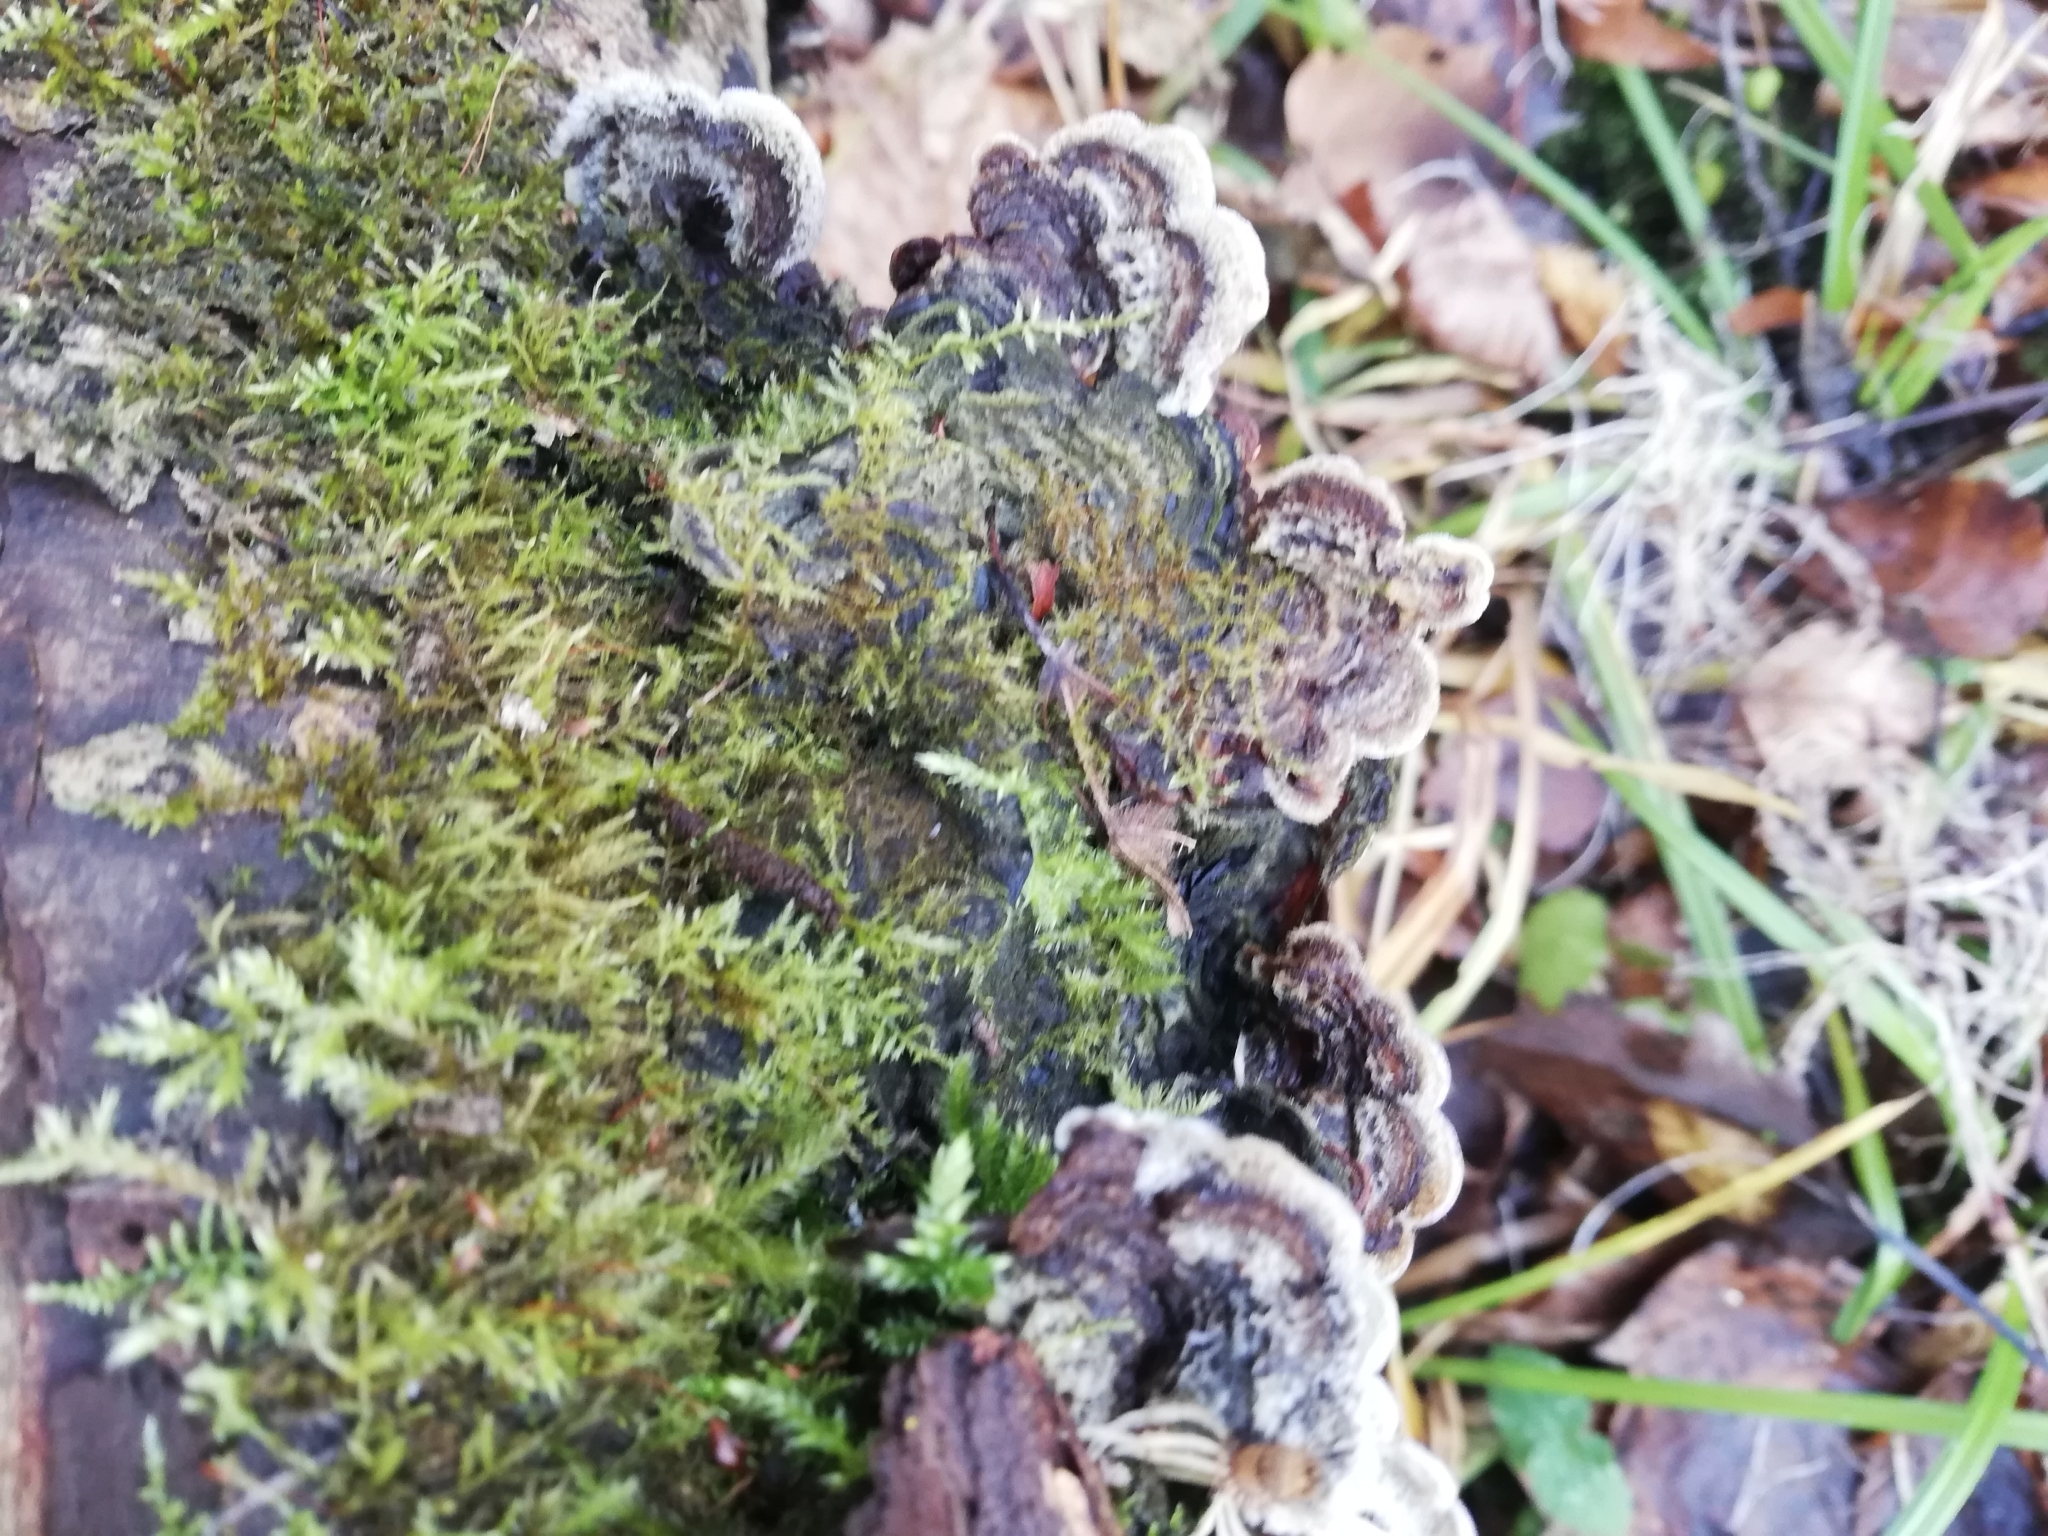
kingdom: Fungi
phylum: Basidiomycota
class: Agaricomycetes
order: Auriculariales
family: Auriculariaceae
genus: Auricularia
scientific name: Auricularia mesenterica
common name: Tripe fungus
